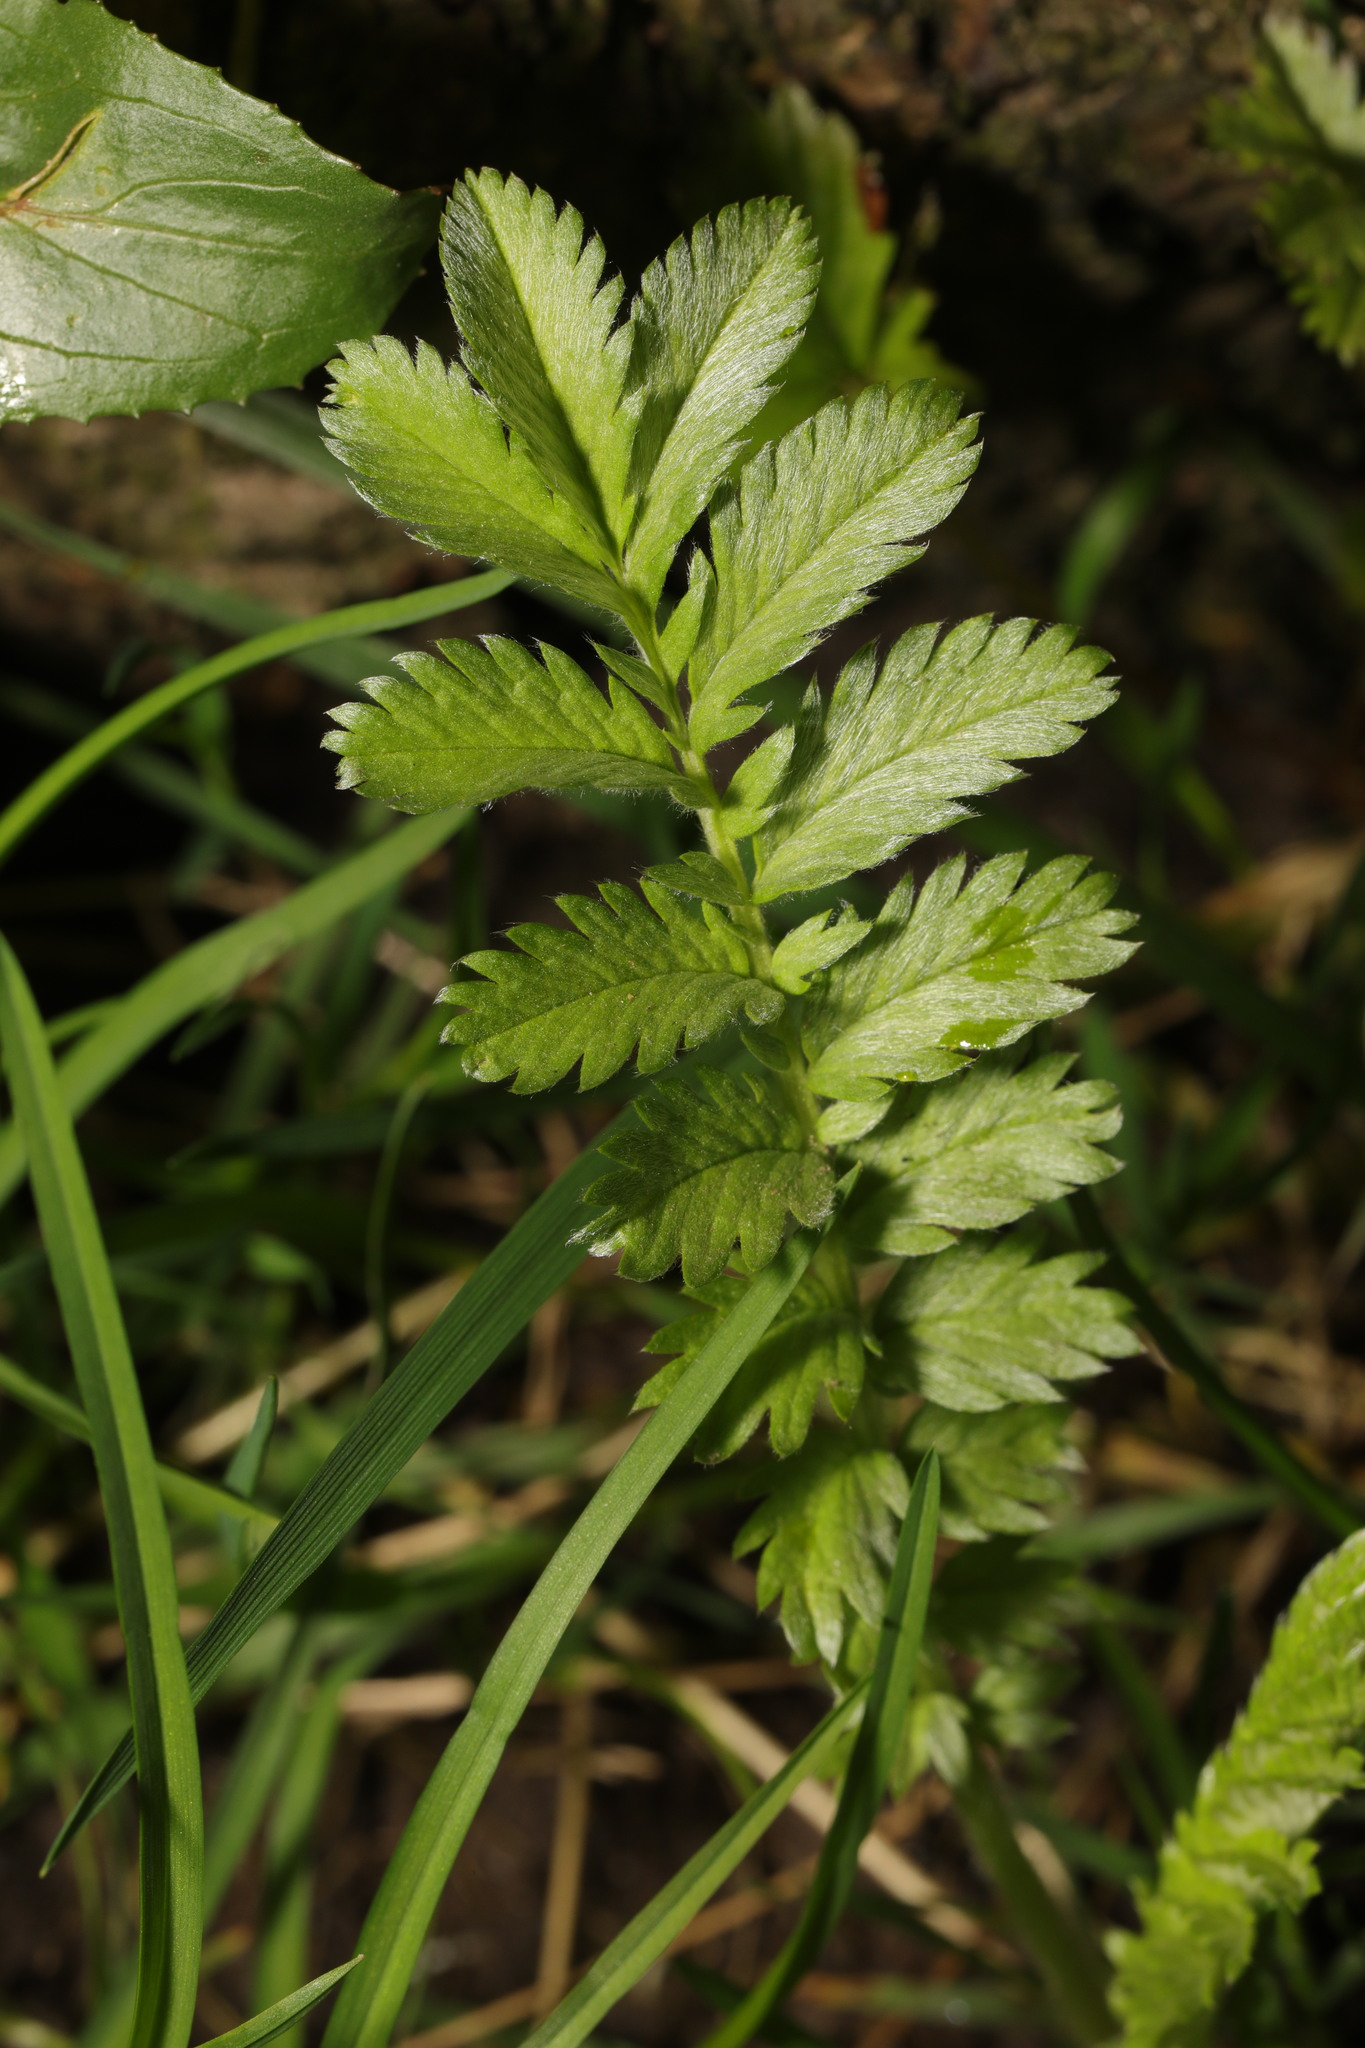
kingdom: Plantae
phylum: Tracheophyta
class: Magnoliopsida
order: Rosales
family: Rosaceae
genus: Argentina
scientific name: Argentina anserina
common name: Common silverweed
